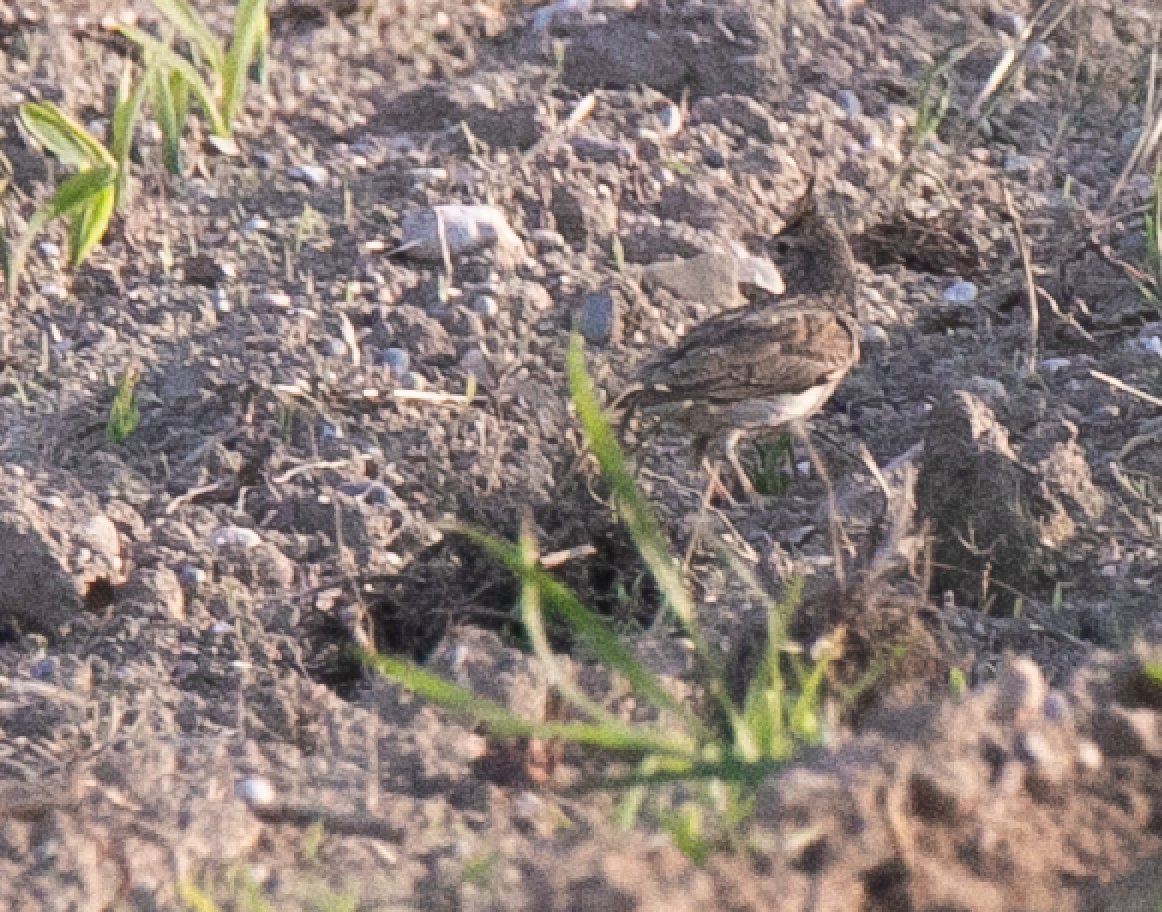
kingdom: Animalia
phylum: Chordata
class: Aves
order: Passeriformes
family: Alaudidae
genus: Galerida
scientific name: Galerida cristata
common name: Crested lark
